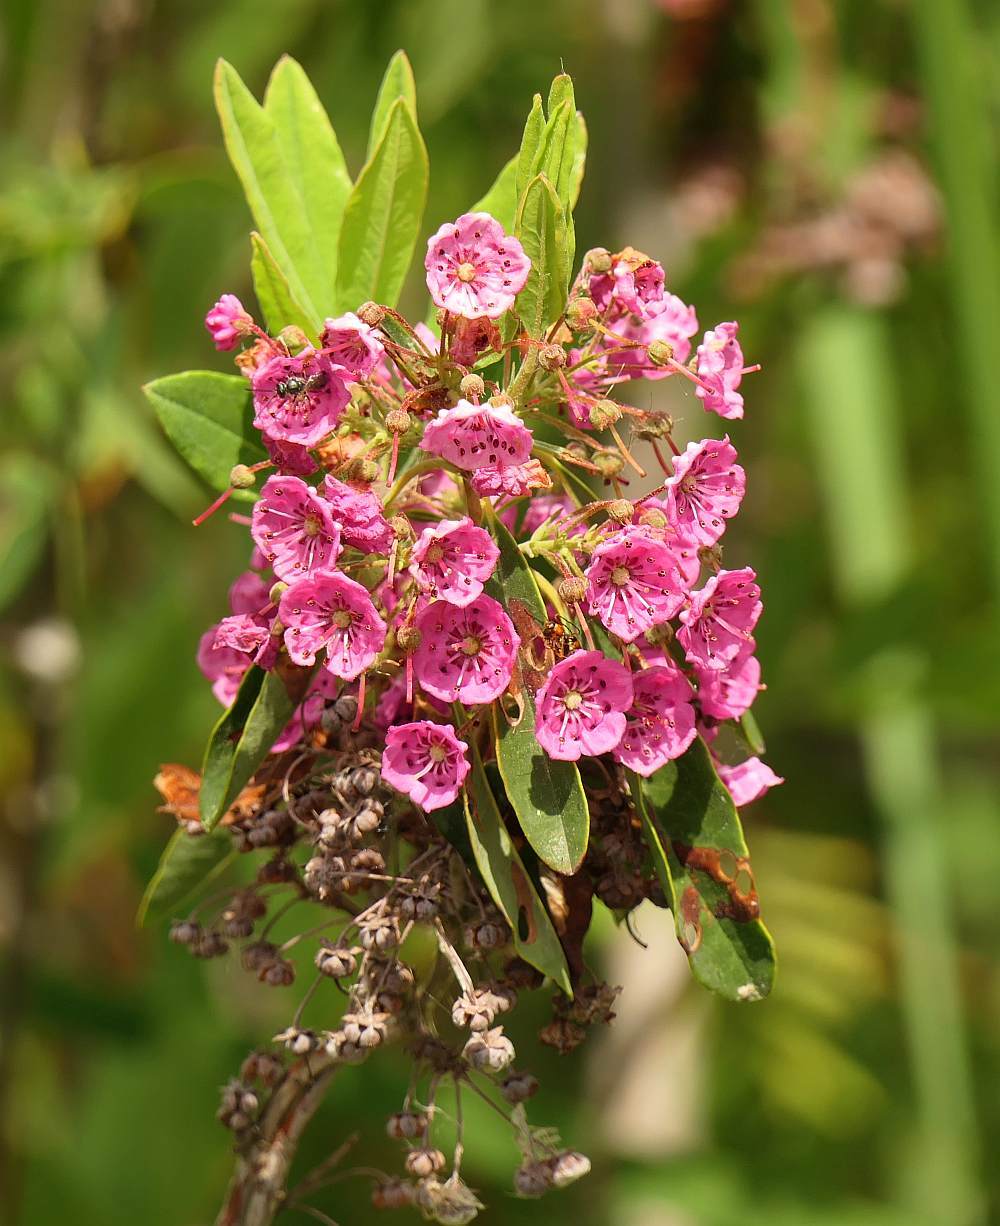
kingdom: Plantae
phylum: Tracheophyta
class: Magnoliopsida
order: Ericales
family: Ericaceae
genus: Kalmia
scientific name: Kalmia angustifolia
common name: Sheep-laurel
